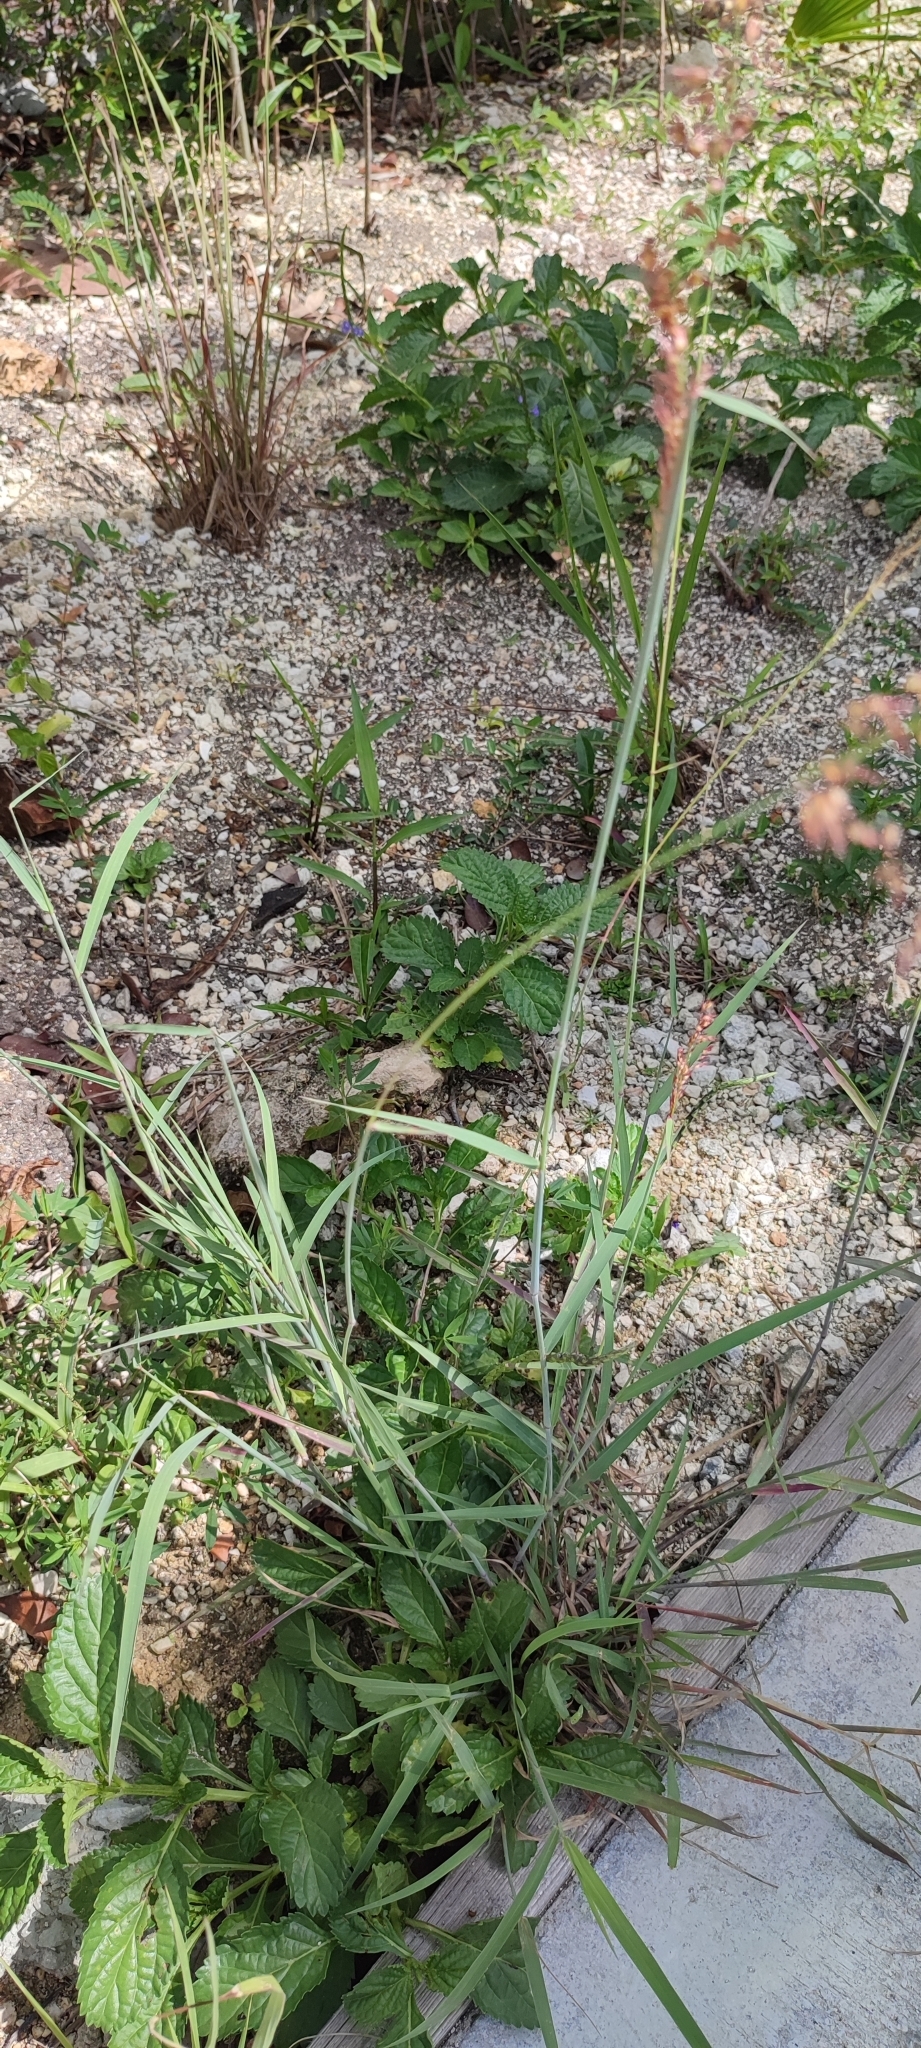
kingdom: Plantae
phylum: Tracheophyta
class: Liliopsida
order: Poales
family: Poaceae
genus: Melinis
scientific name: Melinis repens
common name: Rose natal grass
